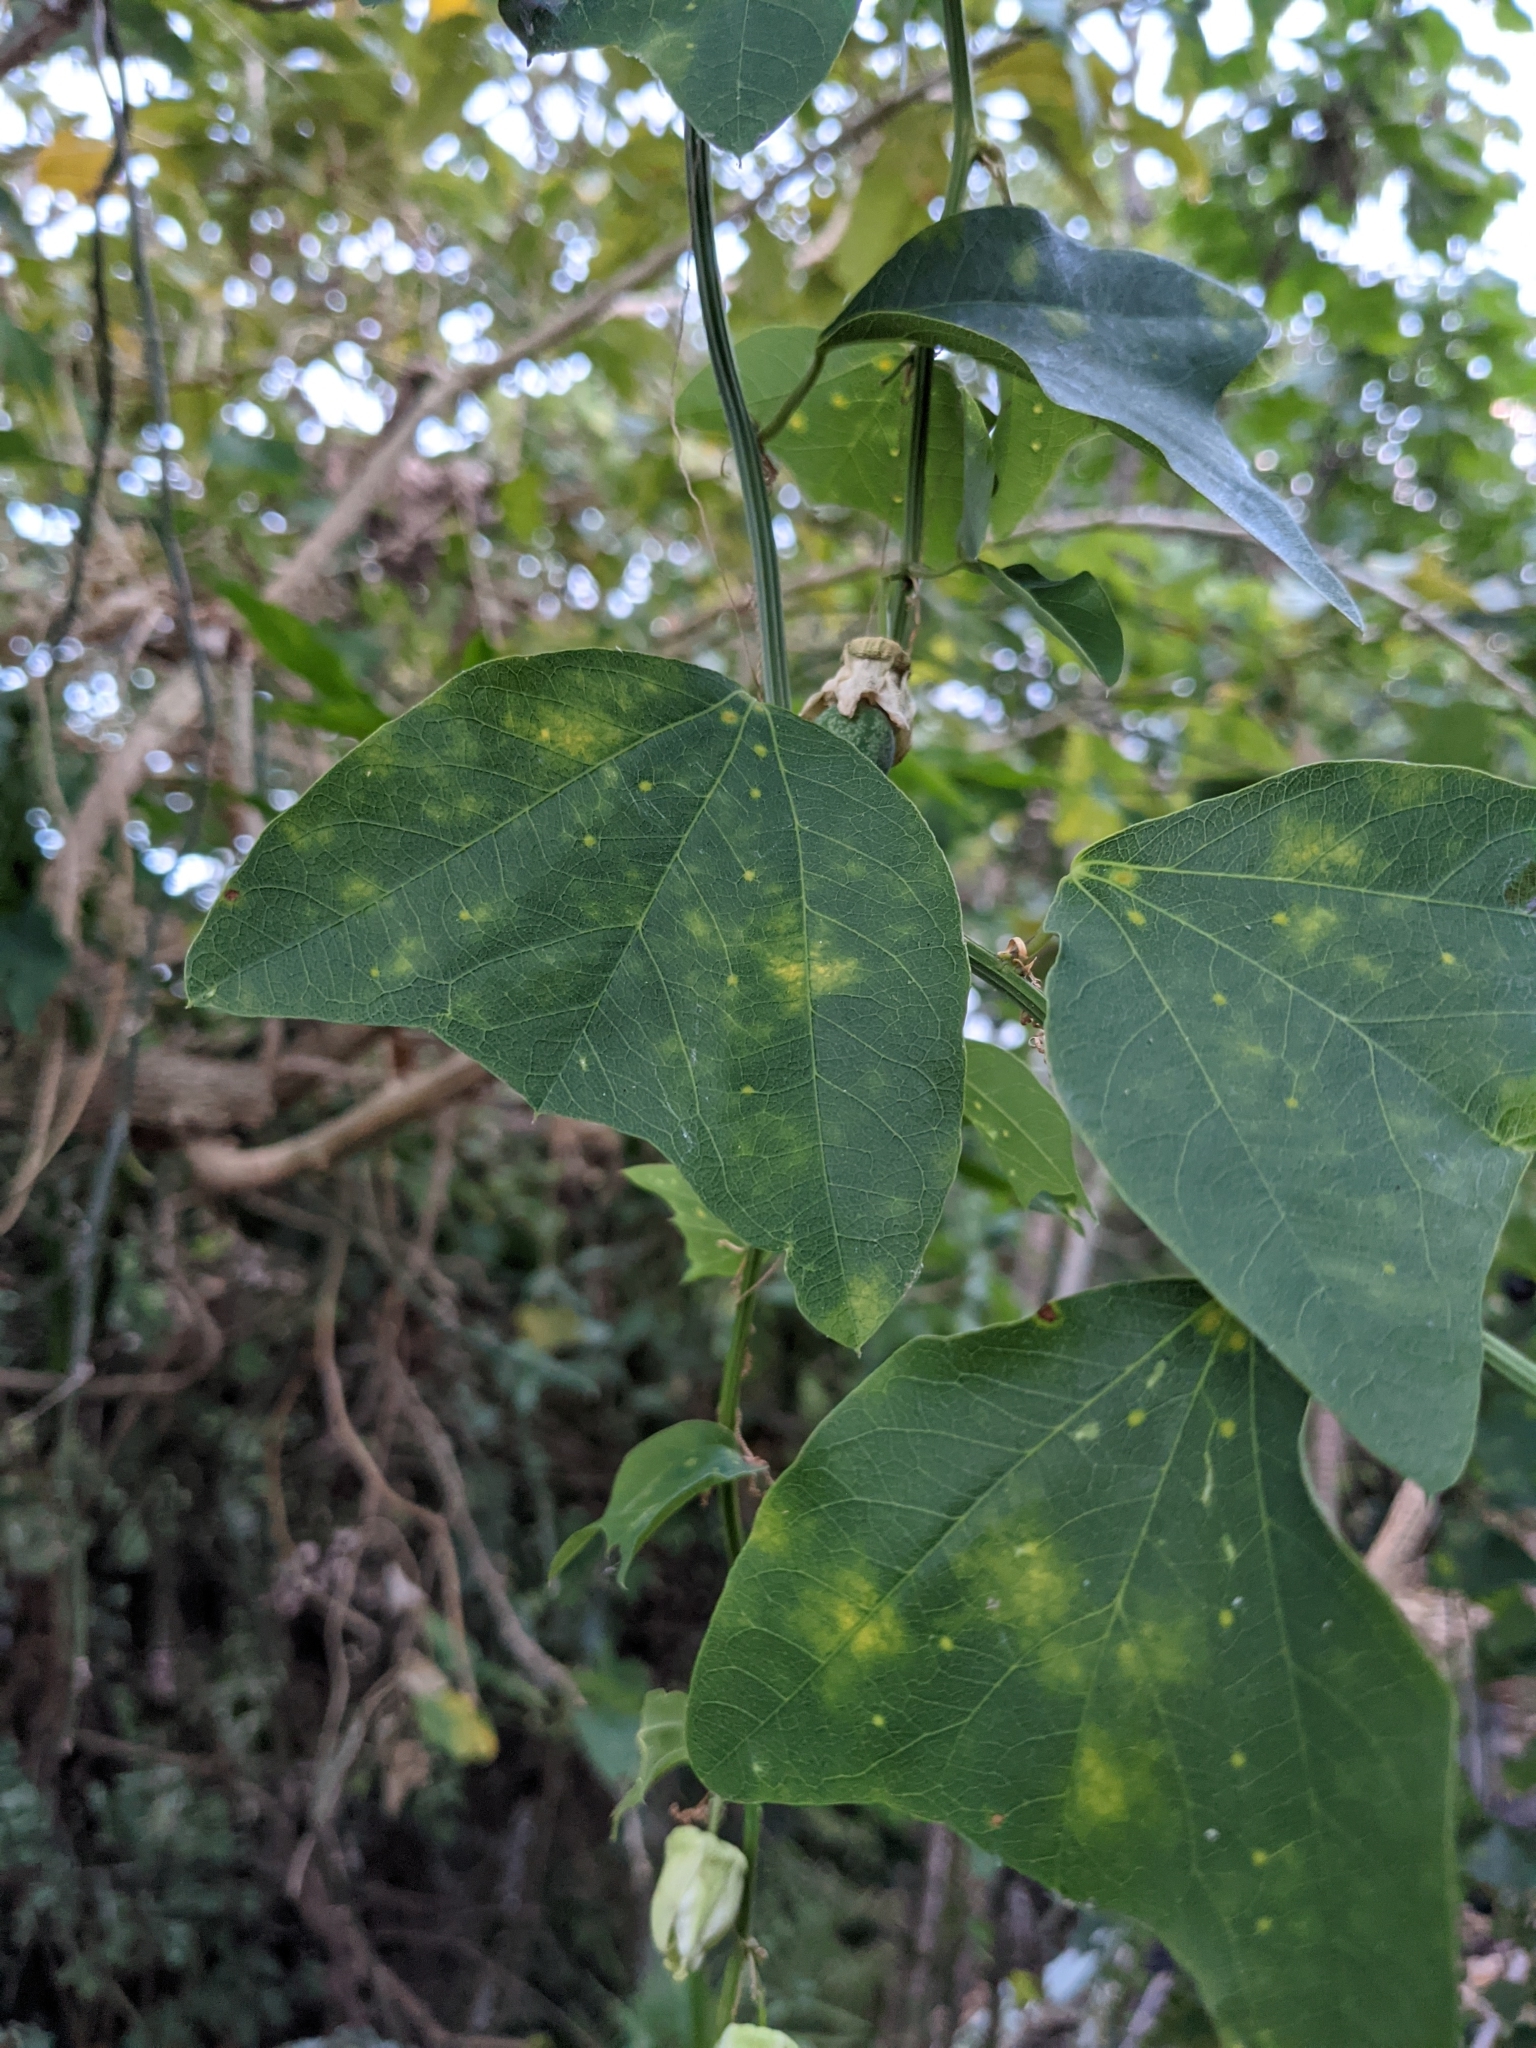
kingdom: Plantae
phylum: Tracheophyta
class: Magnoliopsida
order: Malpighiales
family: Passifloraceae
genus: Passiflora
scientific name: Passiflora biflora
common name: Twoflower passionflower
